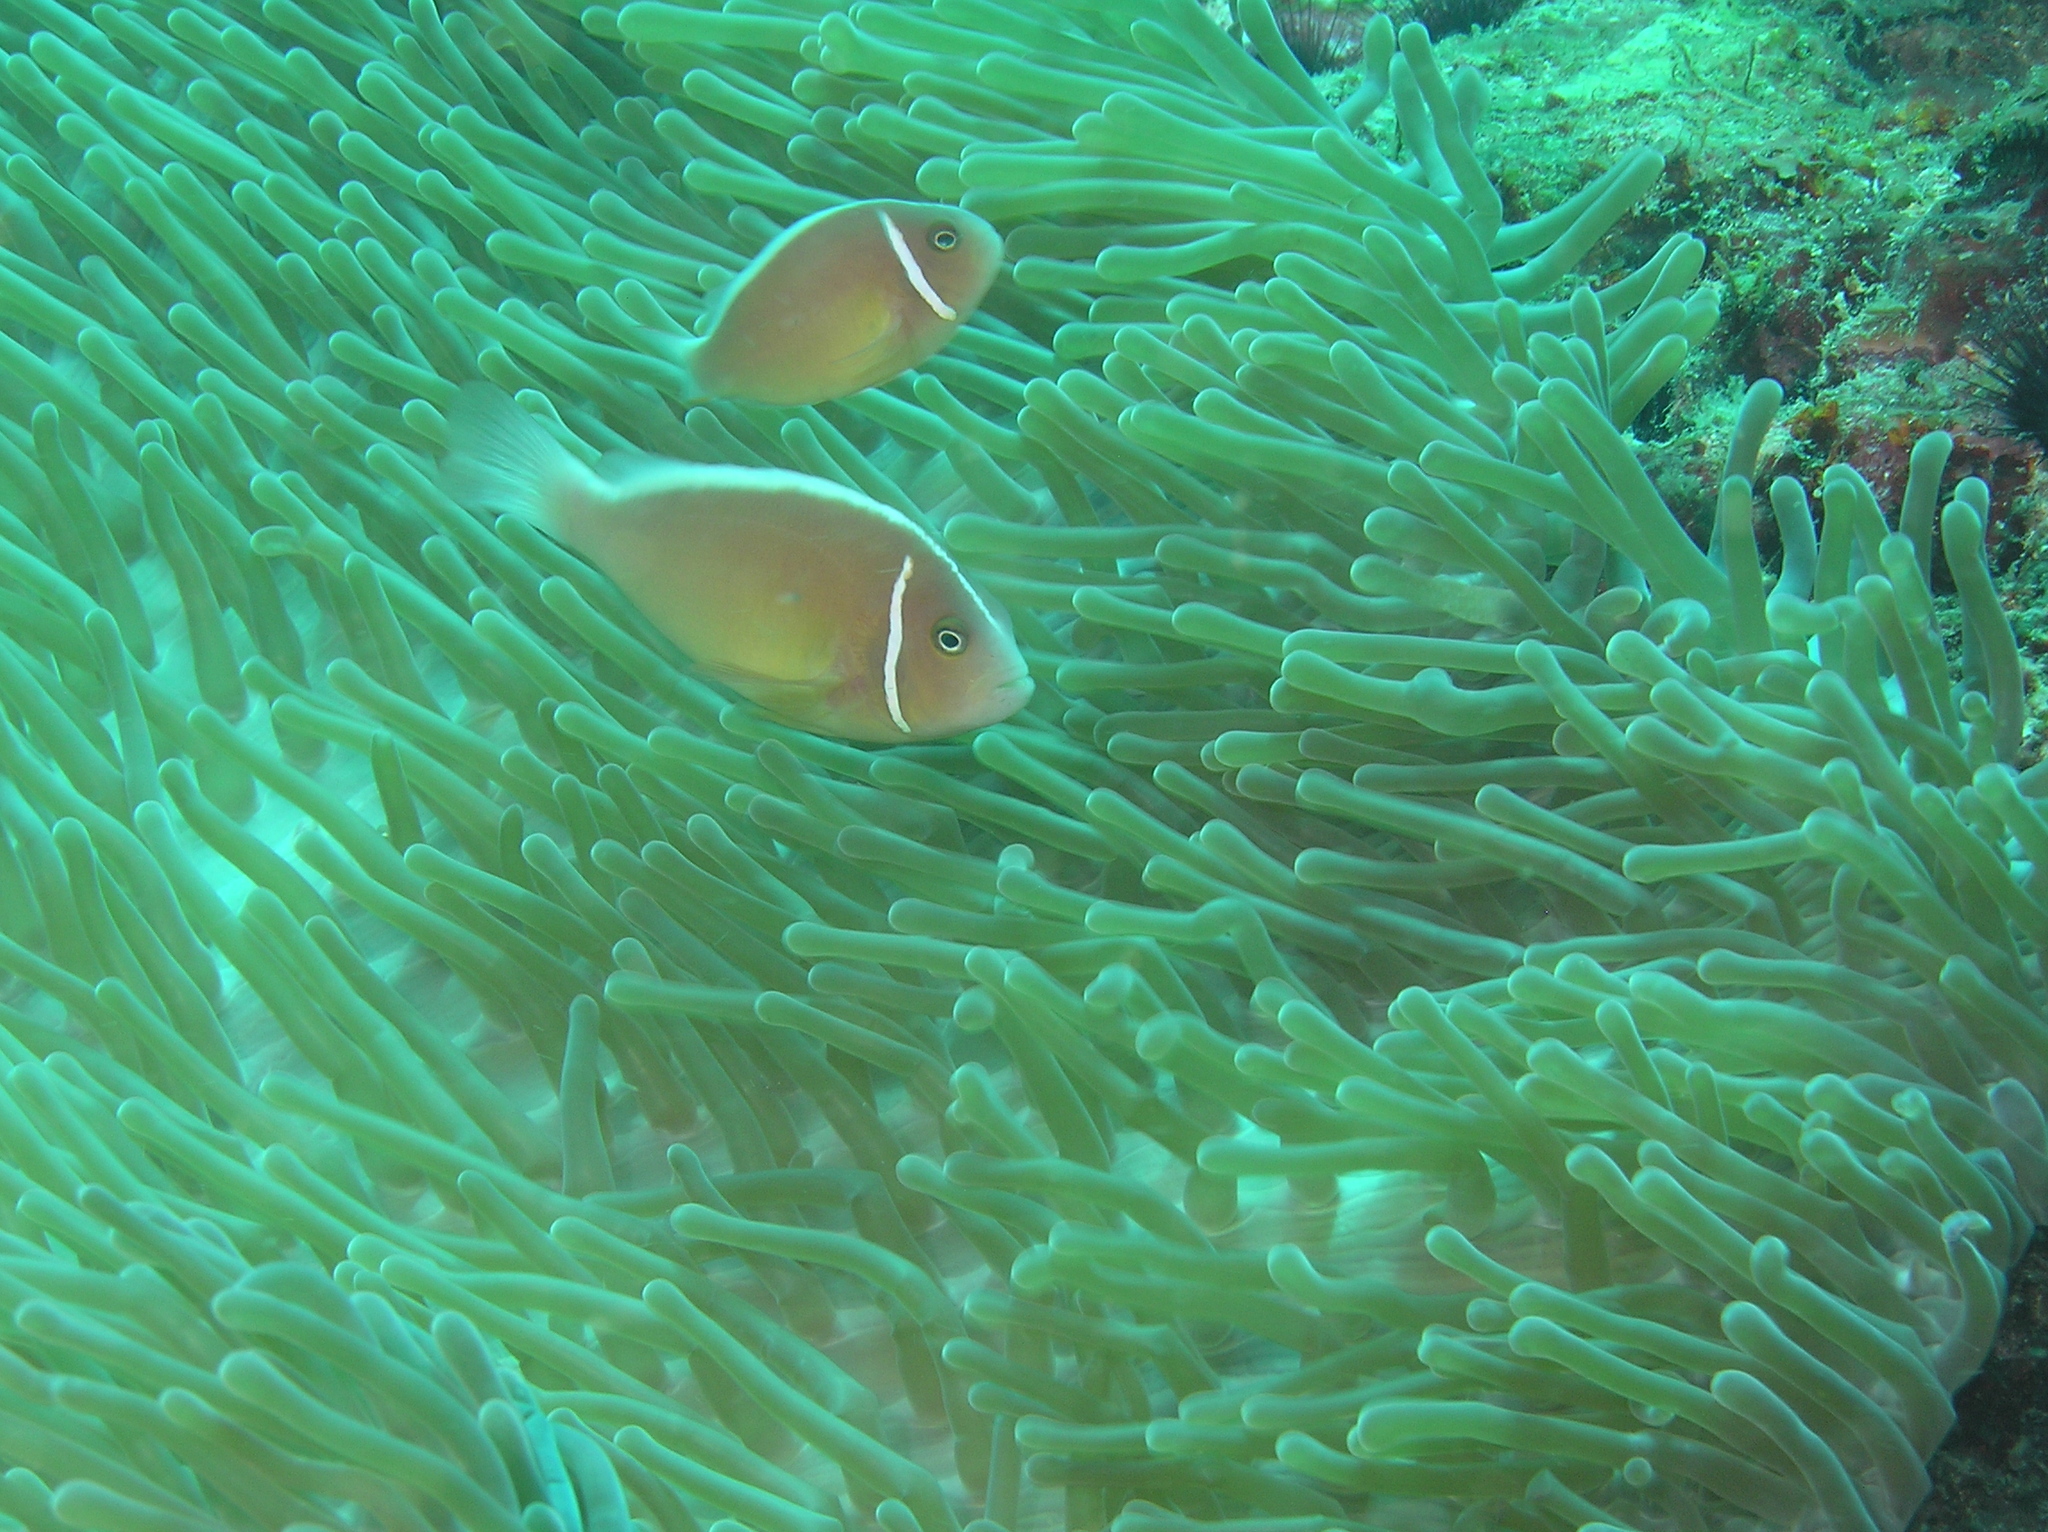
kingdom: Animalia
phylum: Chordata
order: Perciformes
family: Pomacentridae
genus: Amphiprion
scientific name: Amphiprion perideraion
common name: Pink anemonefish
